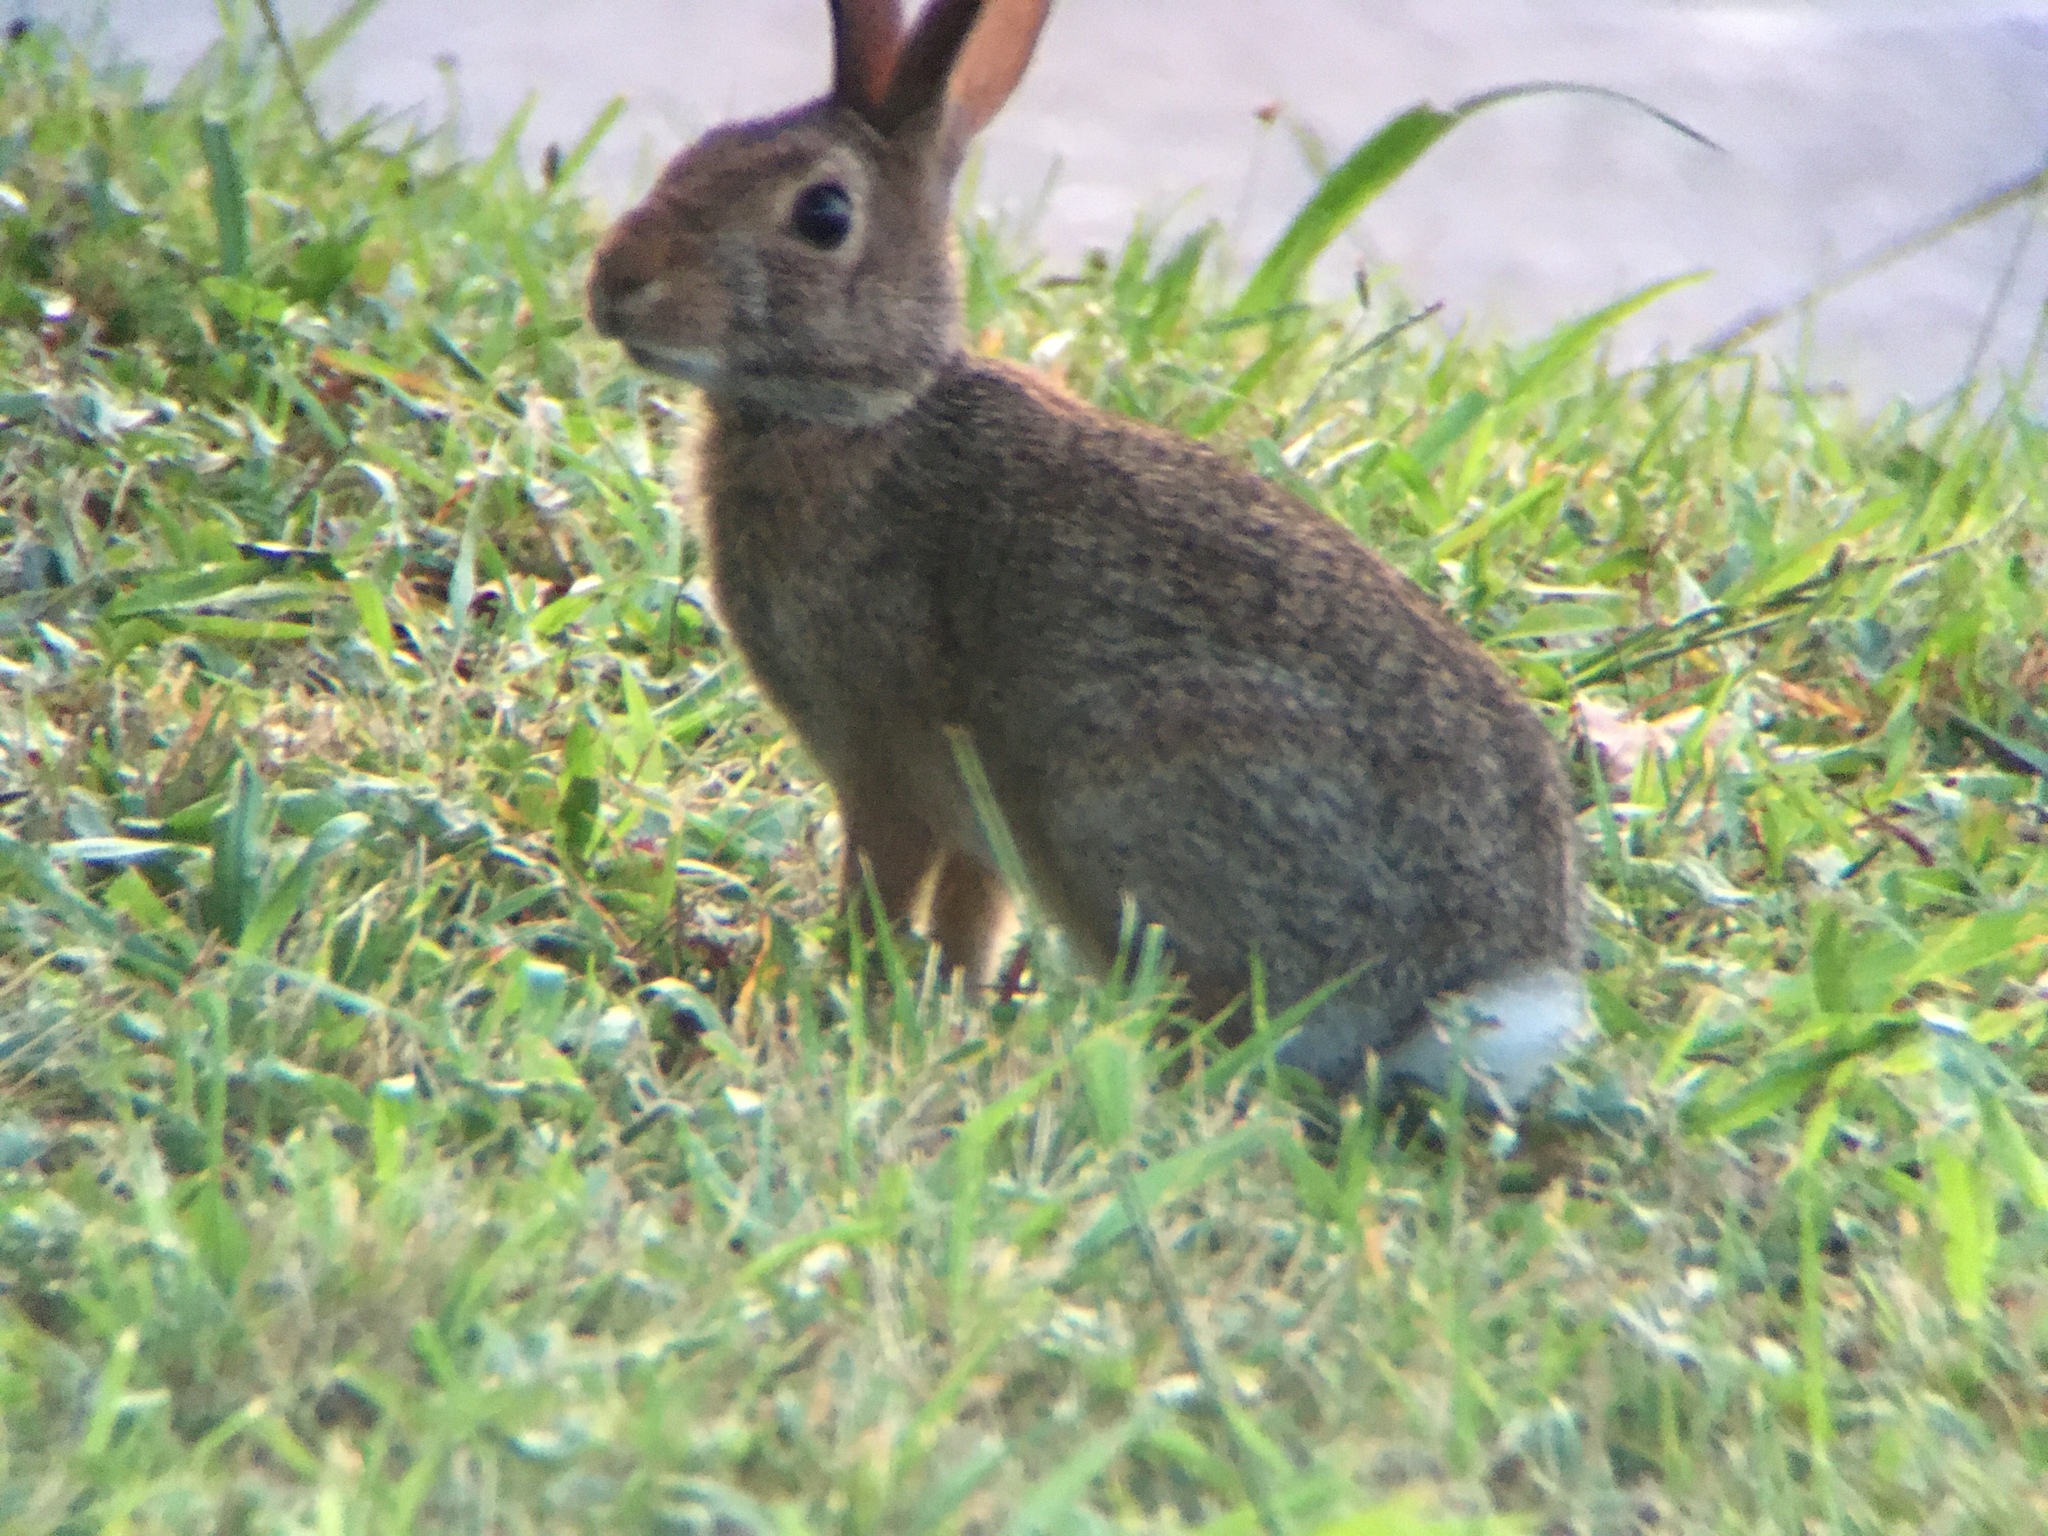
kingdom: Animalia
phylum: Chordata
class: Mammalia
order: Lagomorpha
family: Leporidae
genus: Sylvilagus
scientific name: Sylvilagus floridanus
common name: Eastern cottontail
